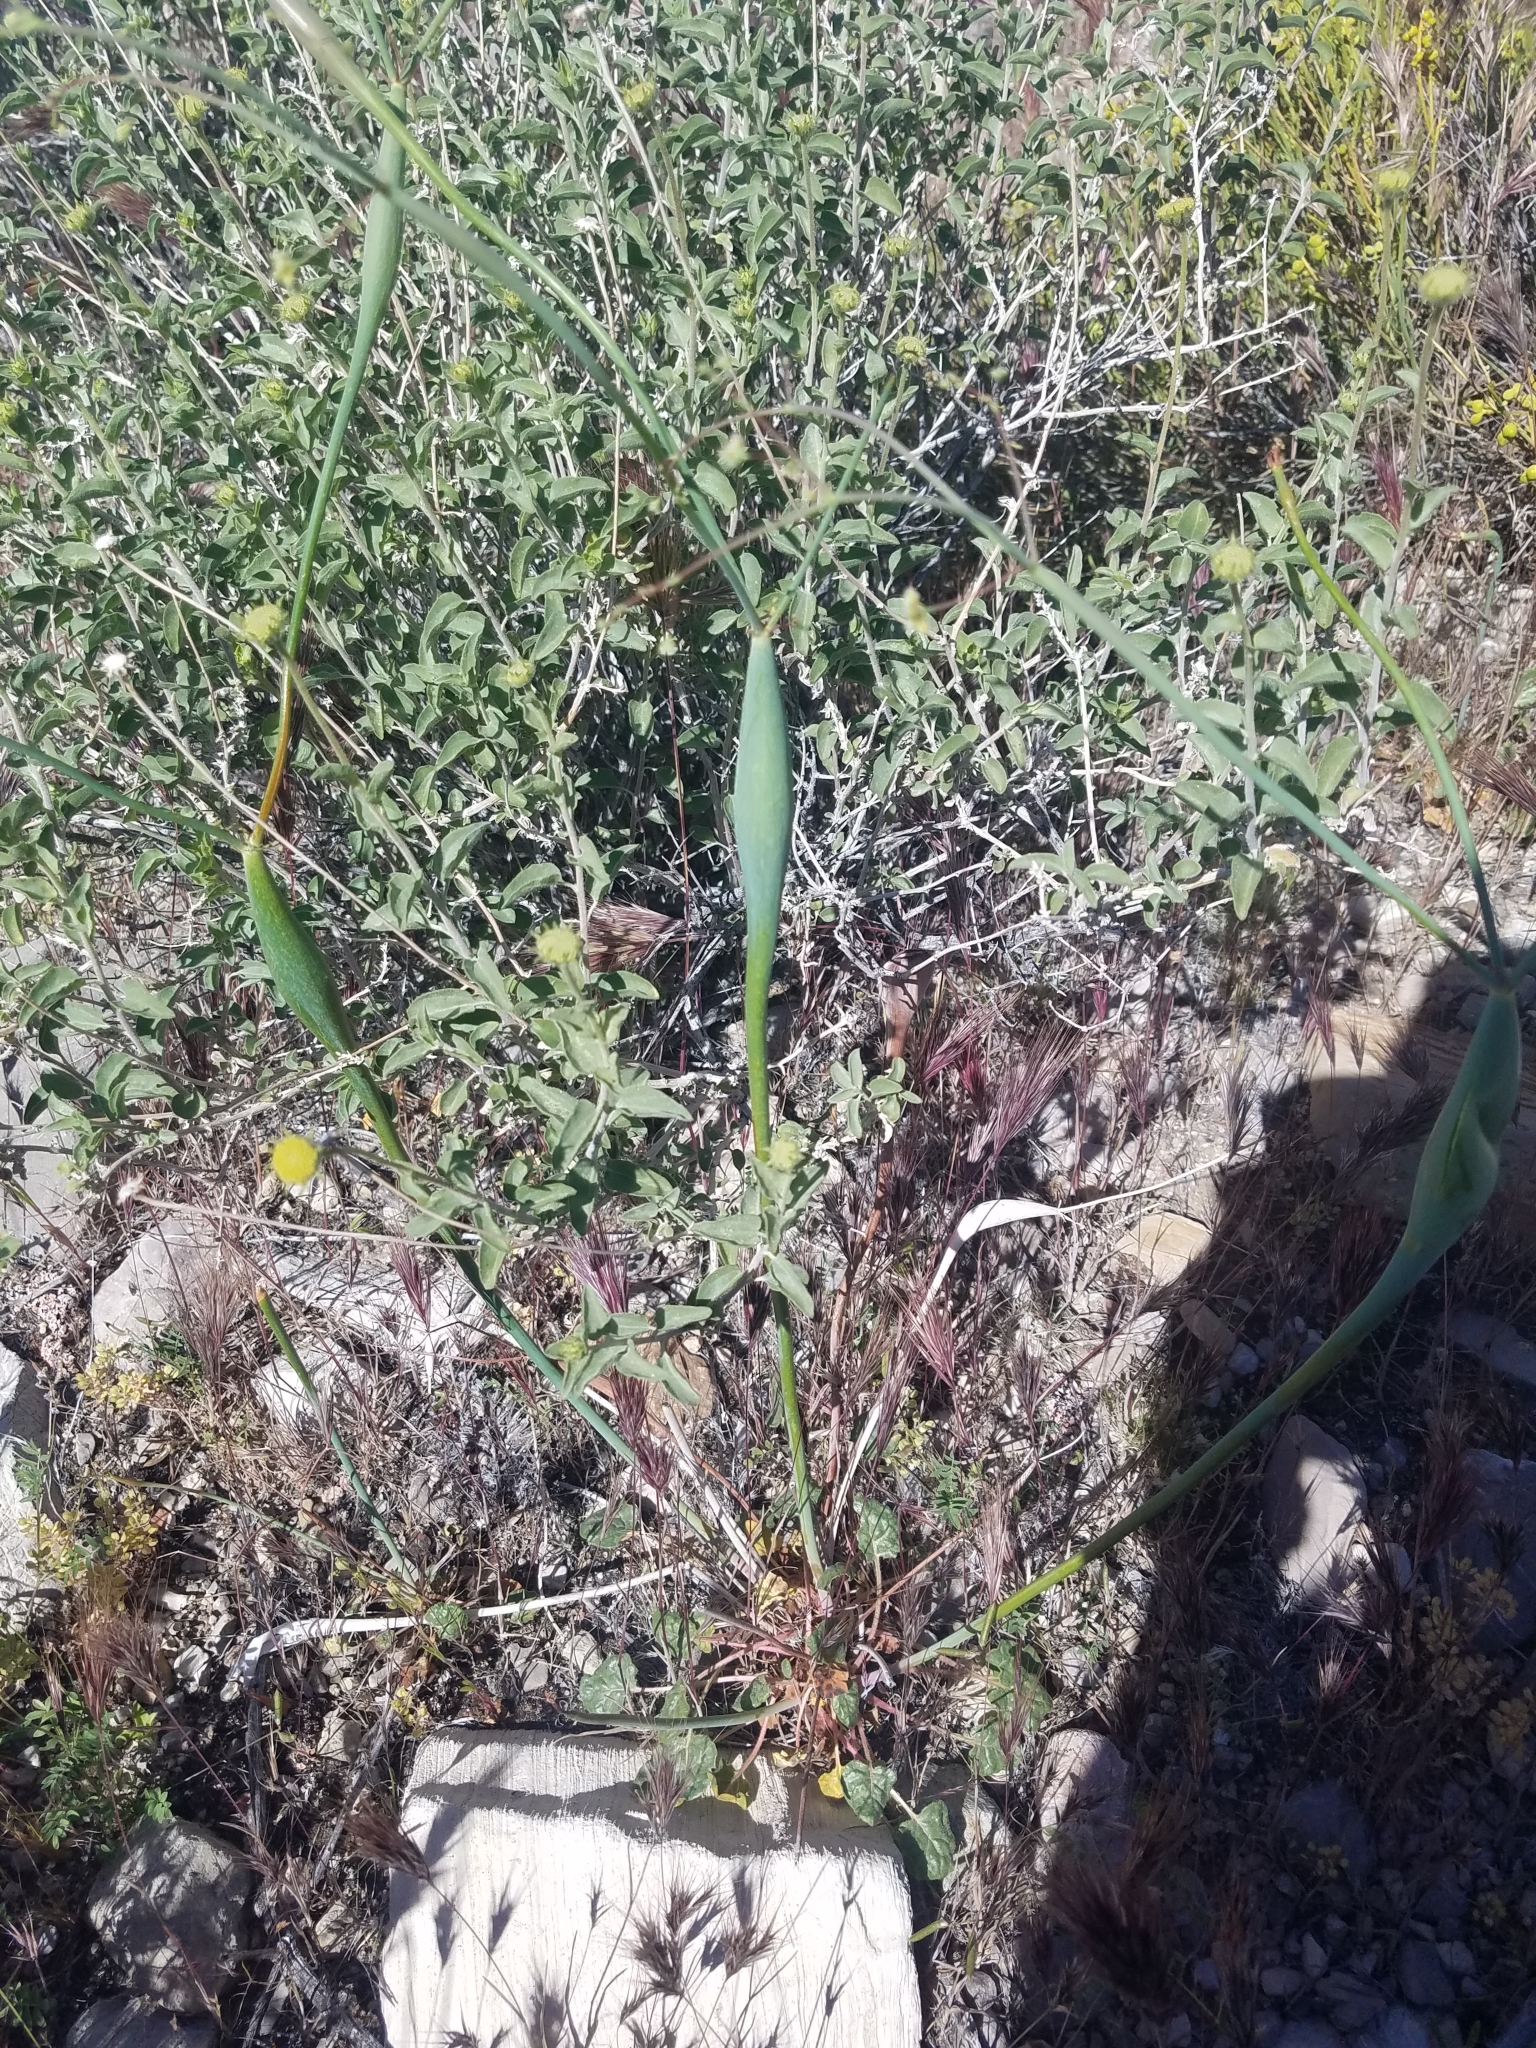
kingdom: Plantae
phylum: Tracheophyta
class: Magnoliopsida
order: Caryophyllales
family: Polygonaceae
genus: Eriogonum
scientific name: Eriogonum inflatum
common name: Desert trumpet
